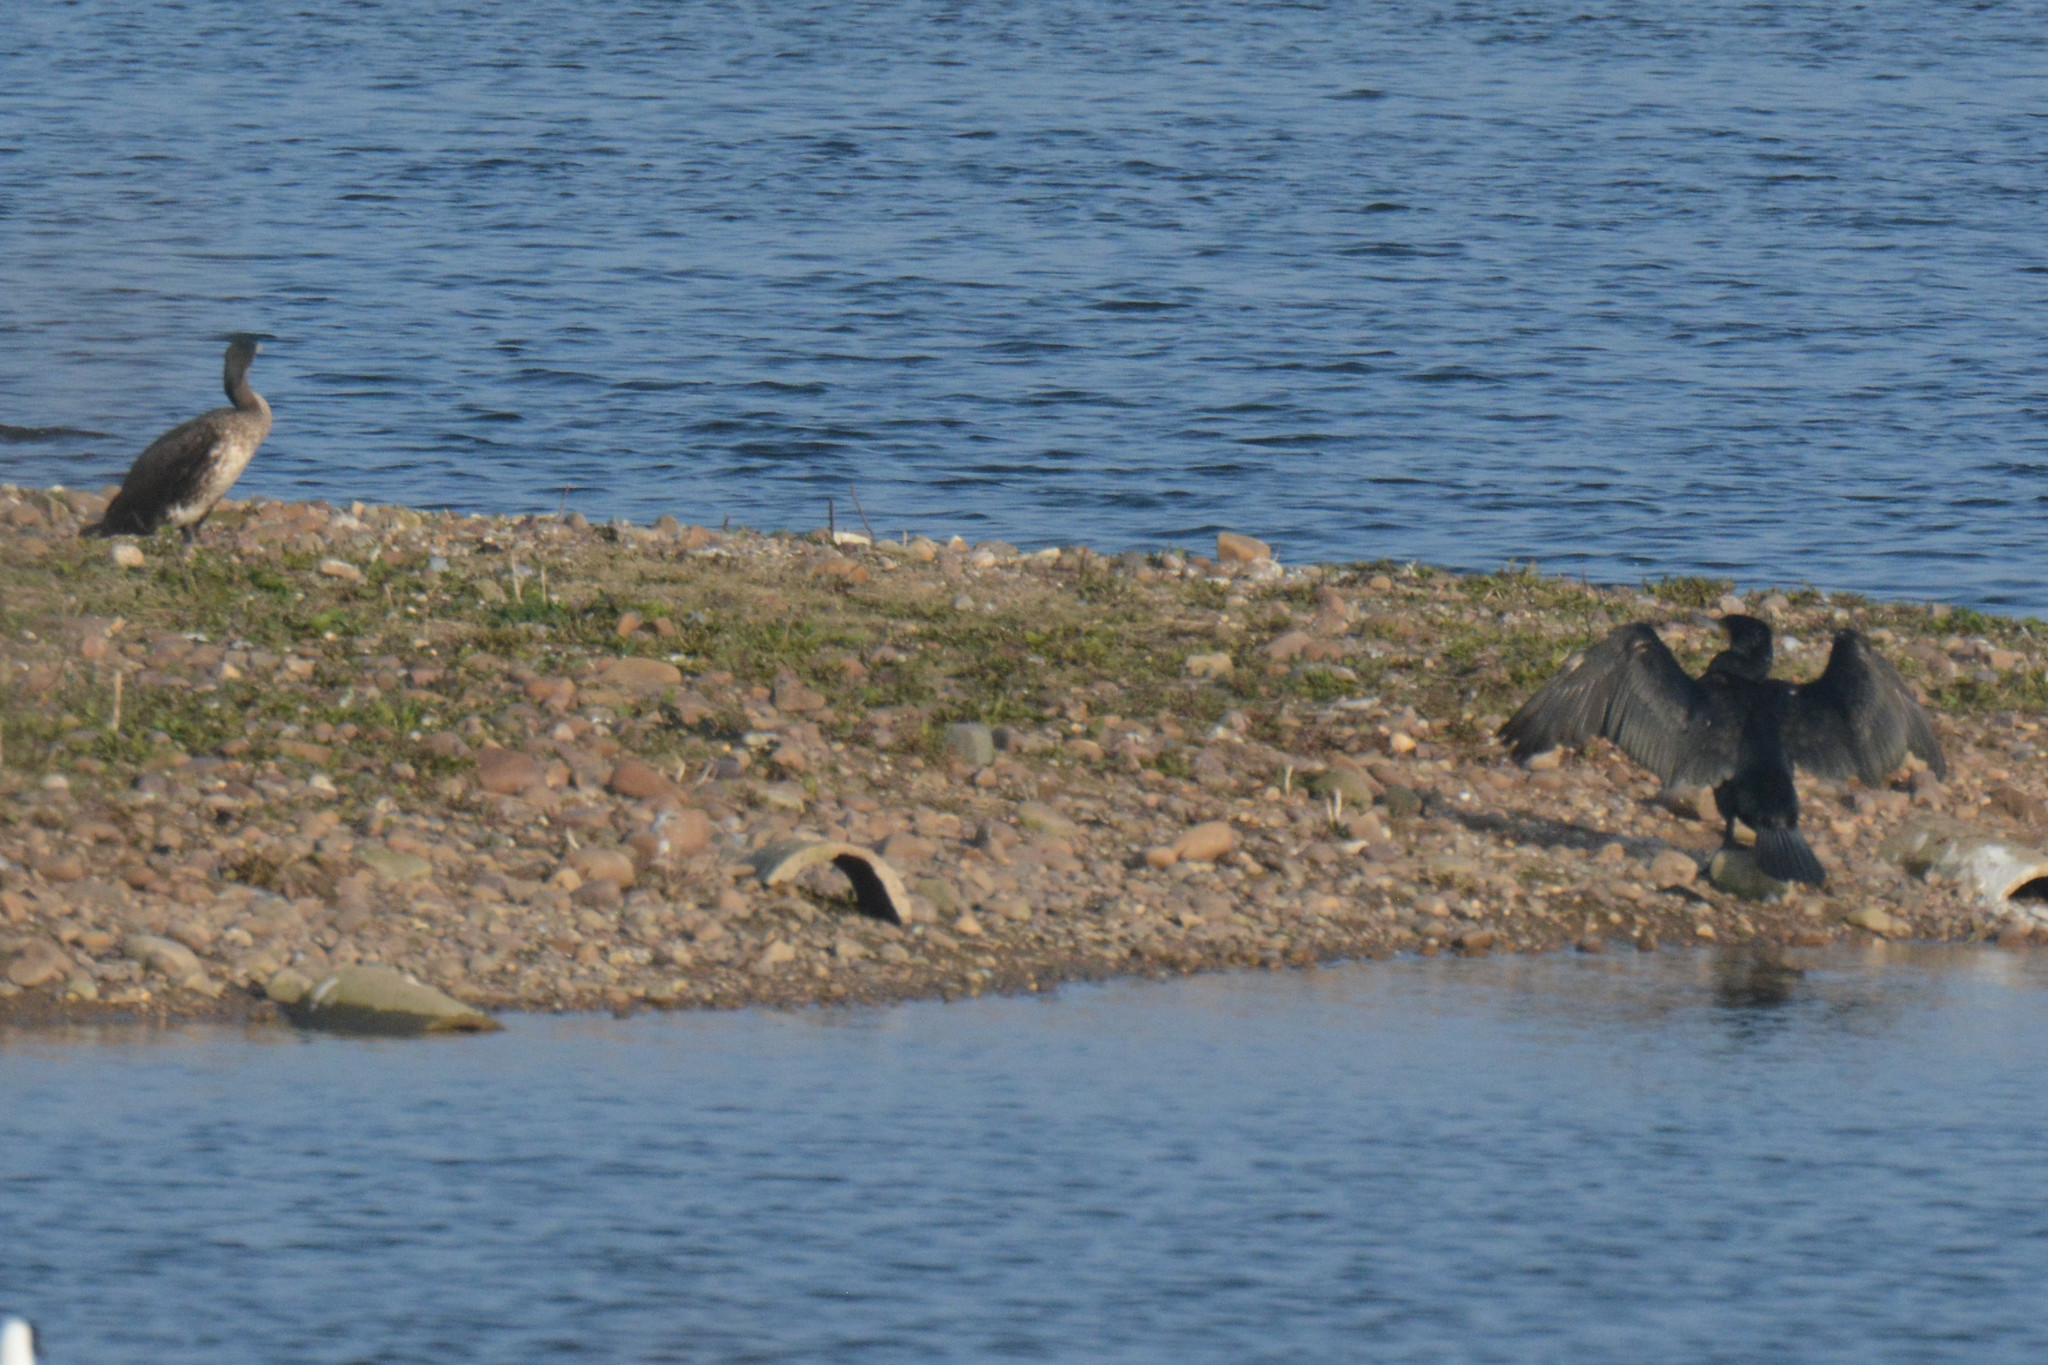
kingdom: Animalia
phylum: Chordata
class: Aves
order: Suliformes
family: Phalacrocoracidae
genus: Phalacrocorax
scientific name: Phalacrocorax carbo
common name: Great cormorant
